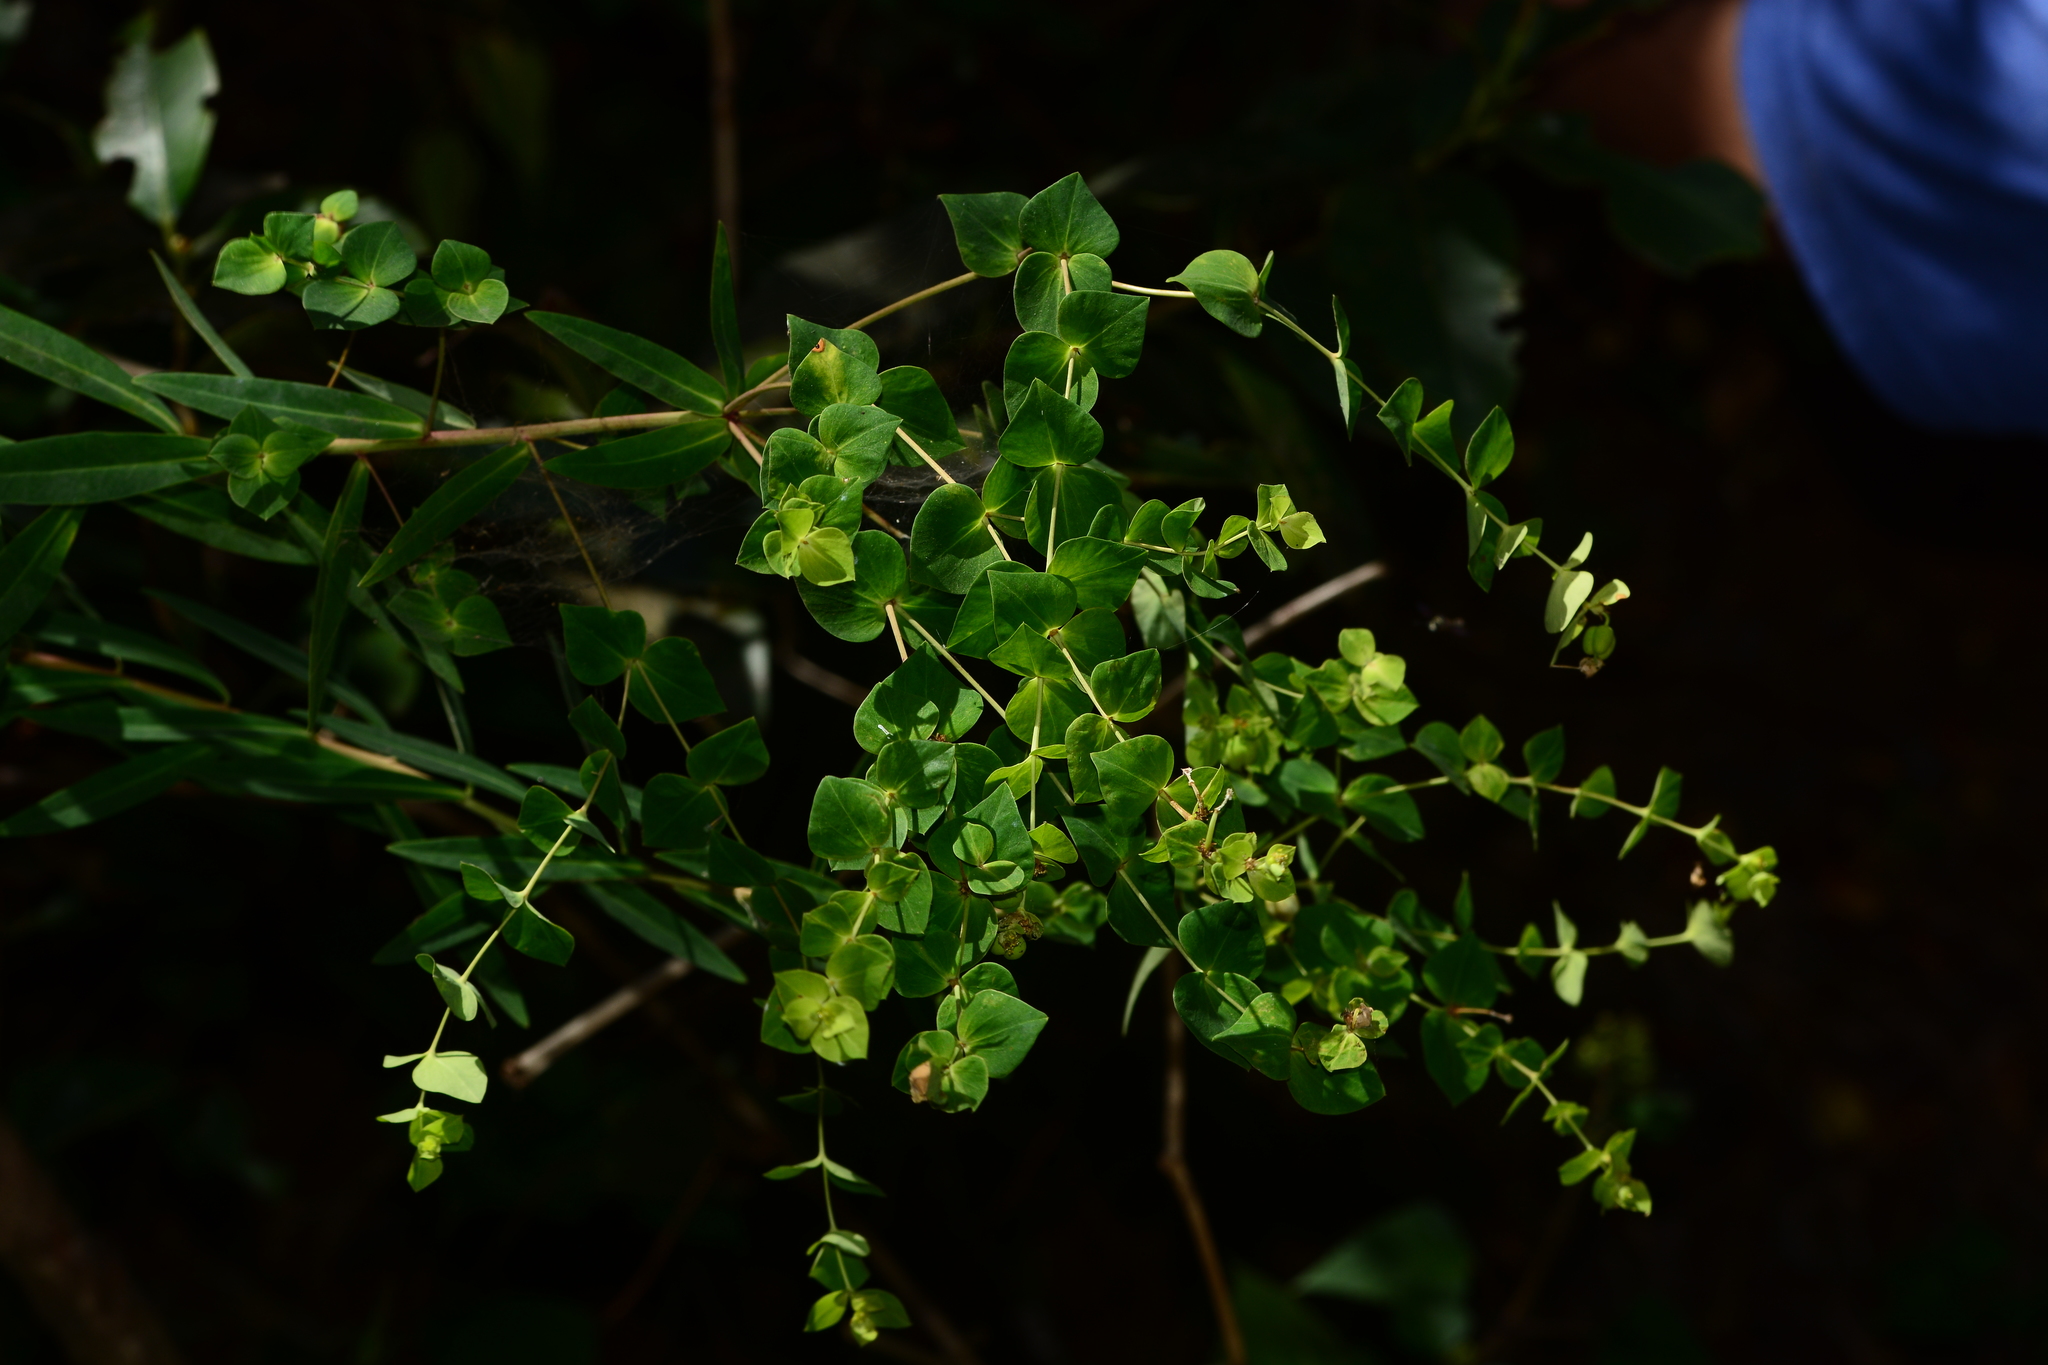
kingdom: Plantae
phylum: Tracheophyta
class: Magnoliopsida
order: Malpighiales
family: Euphorbiaceae
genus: Euphorbia
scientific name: Euphorbia rothiana
